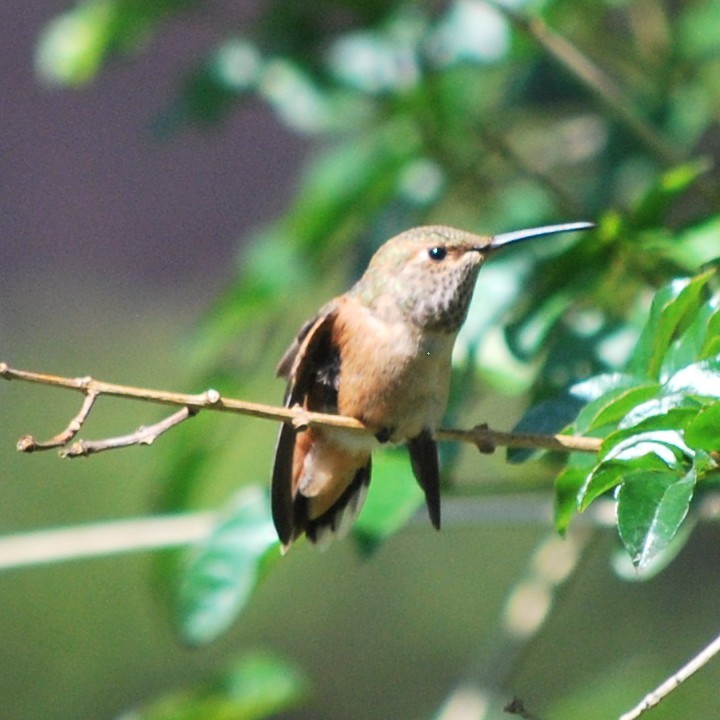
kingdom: Animalia
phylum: Chordata
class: Aves
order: Apodiformes
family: Trochilidae
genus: Selasphorus
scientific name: Selasphorus sasin
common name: Allen's hummingbird
